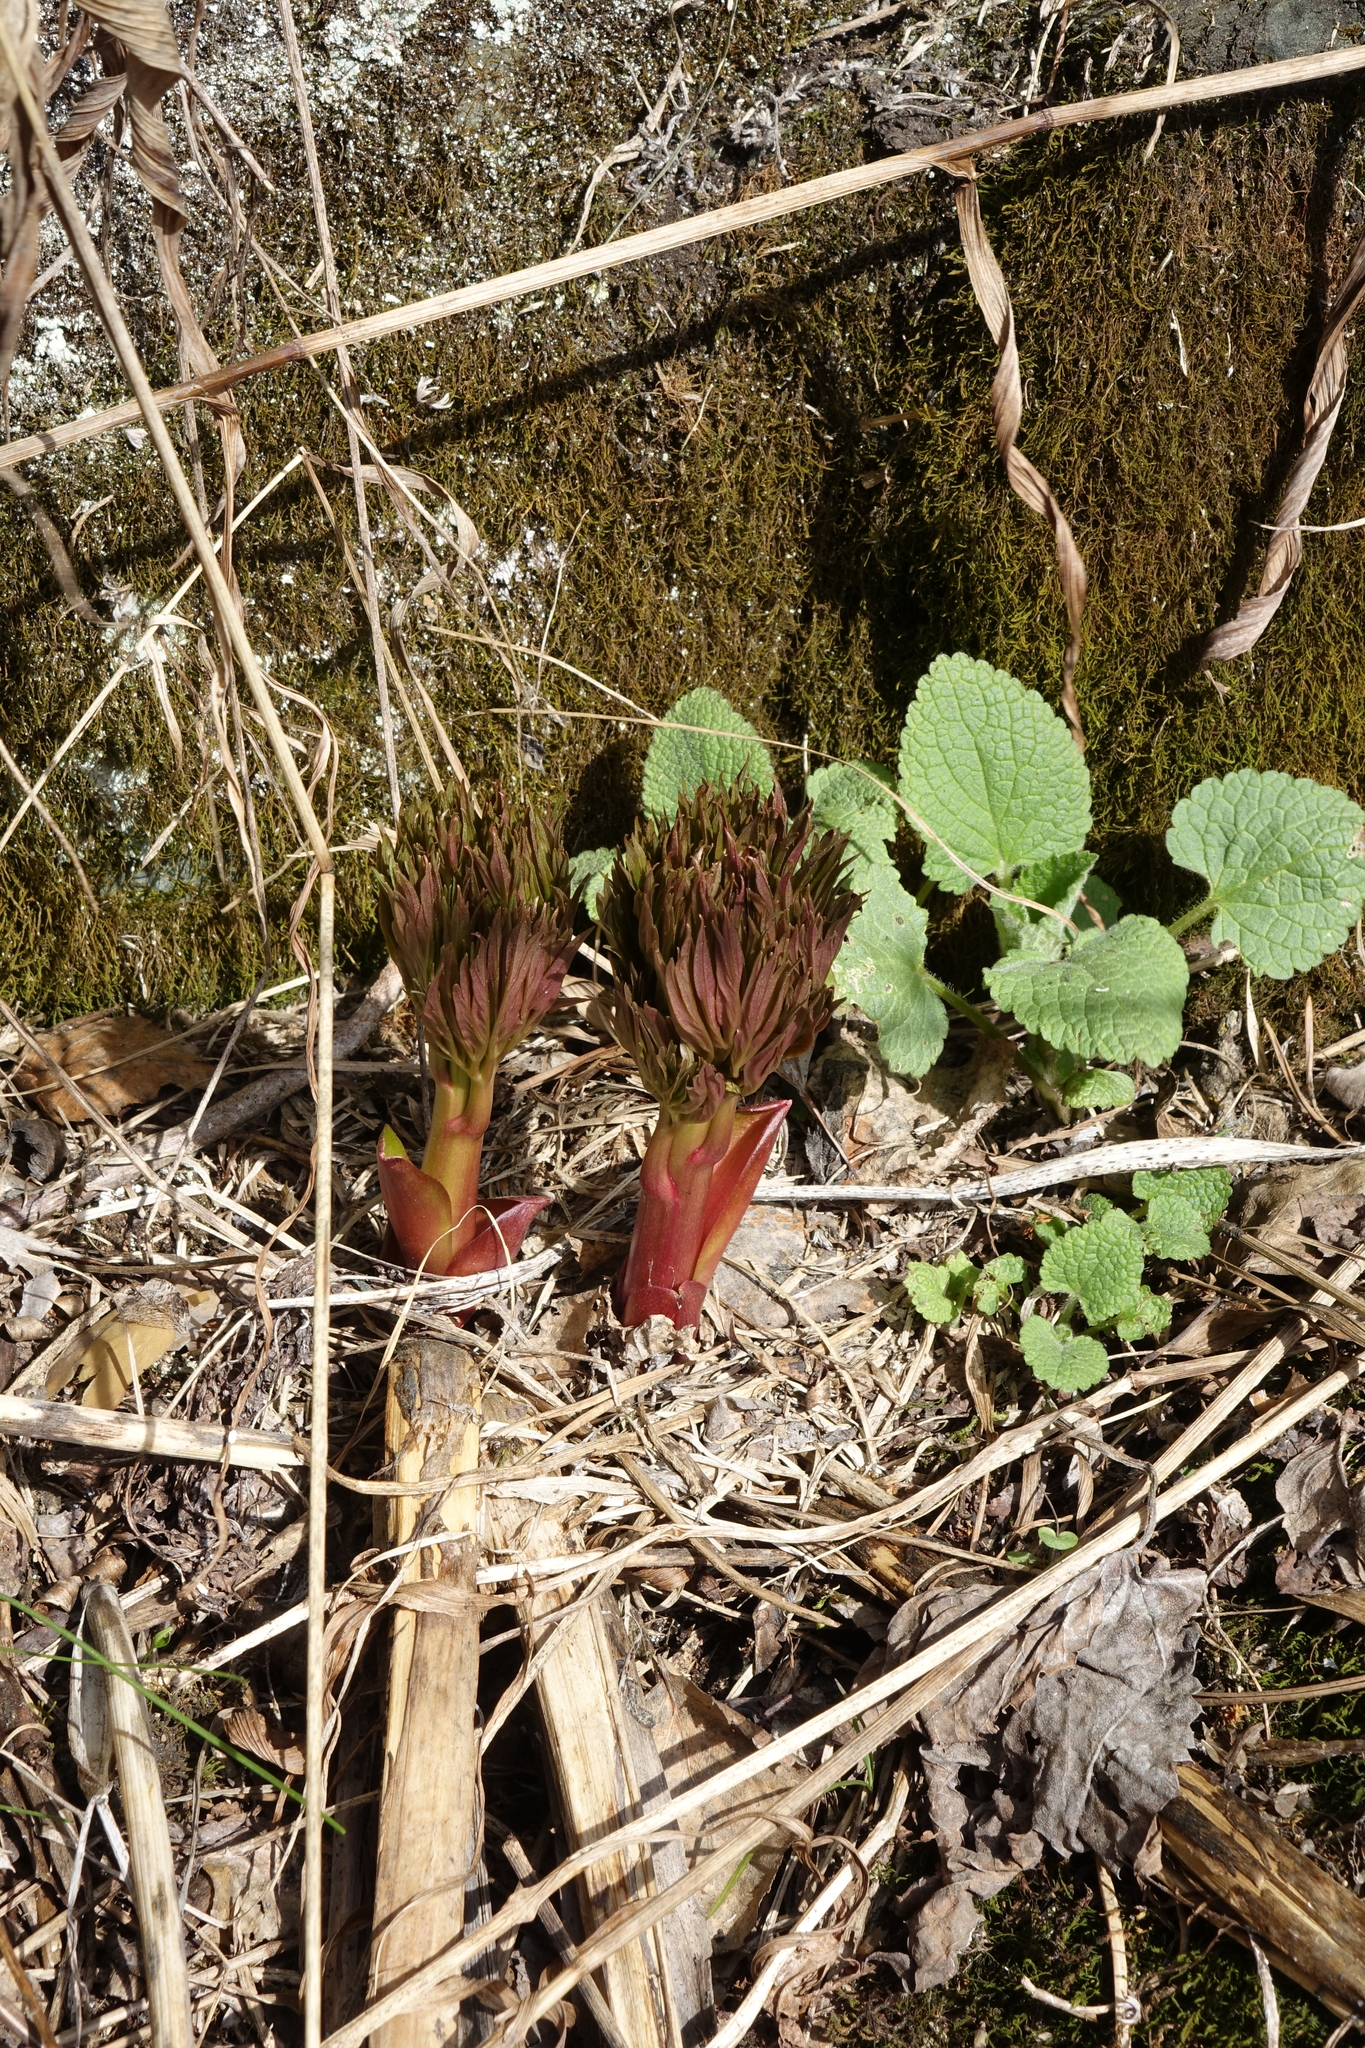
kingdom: Plantae
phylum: Tracheophyta
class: Magnoliopsida
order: Saxifragales
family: Paeoniaceae
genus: Paeonia
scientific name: Paeonia anomala
